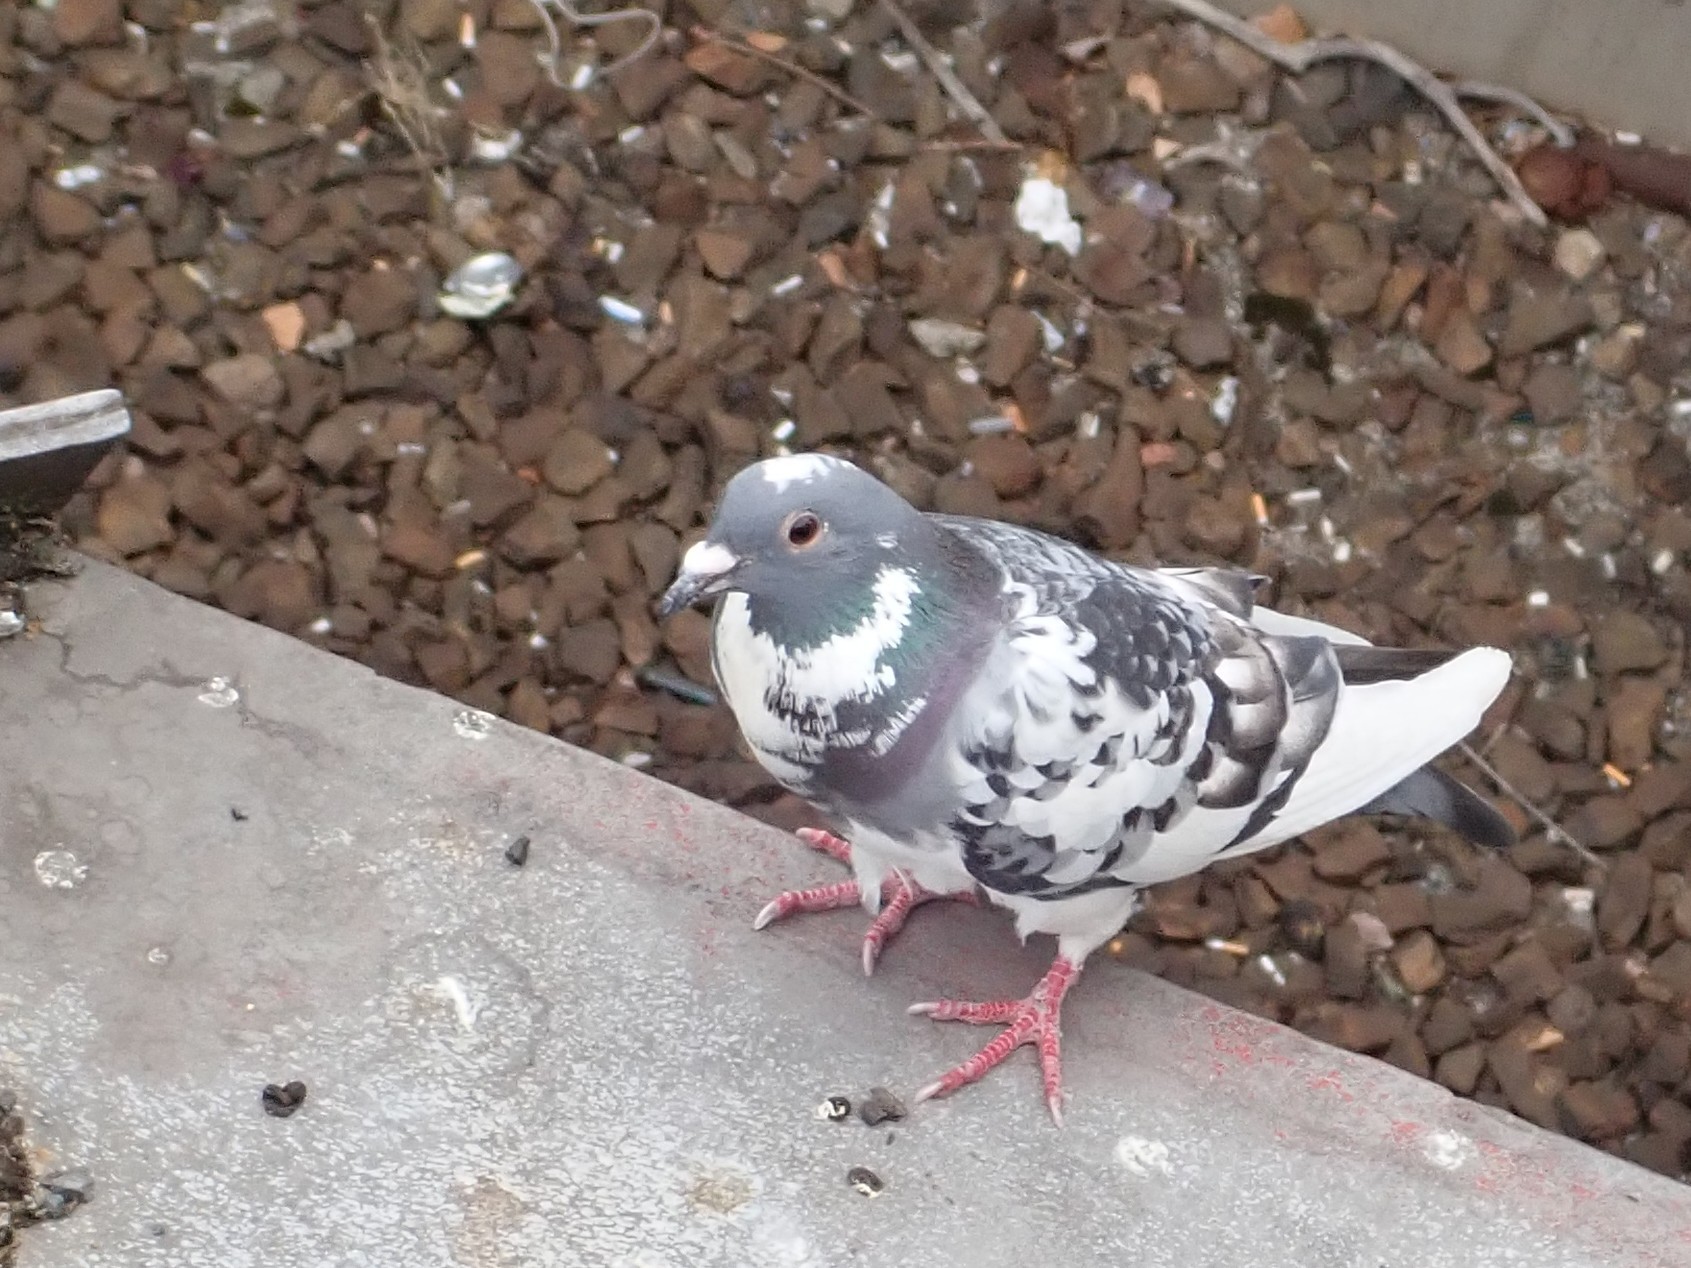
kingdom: Animalia
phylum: Chordata
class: Aves
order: Columbiformes
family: Columbidae
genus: Columba
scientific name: Columba livia
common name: Rock pigeon
